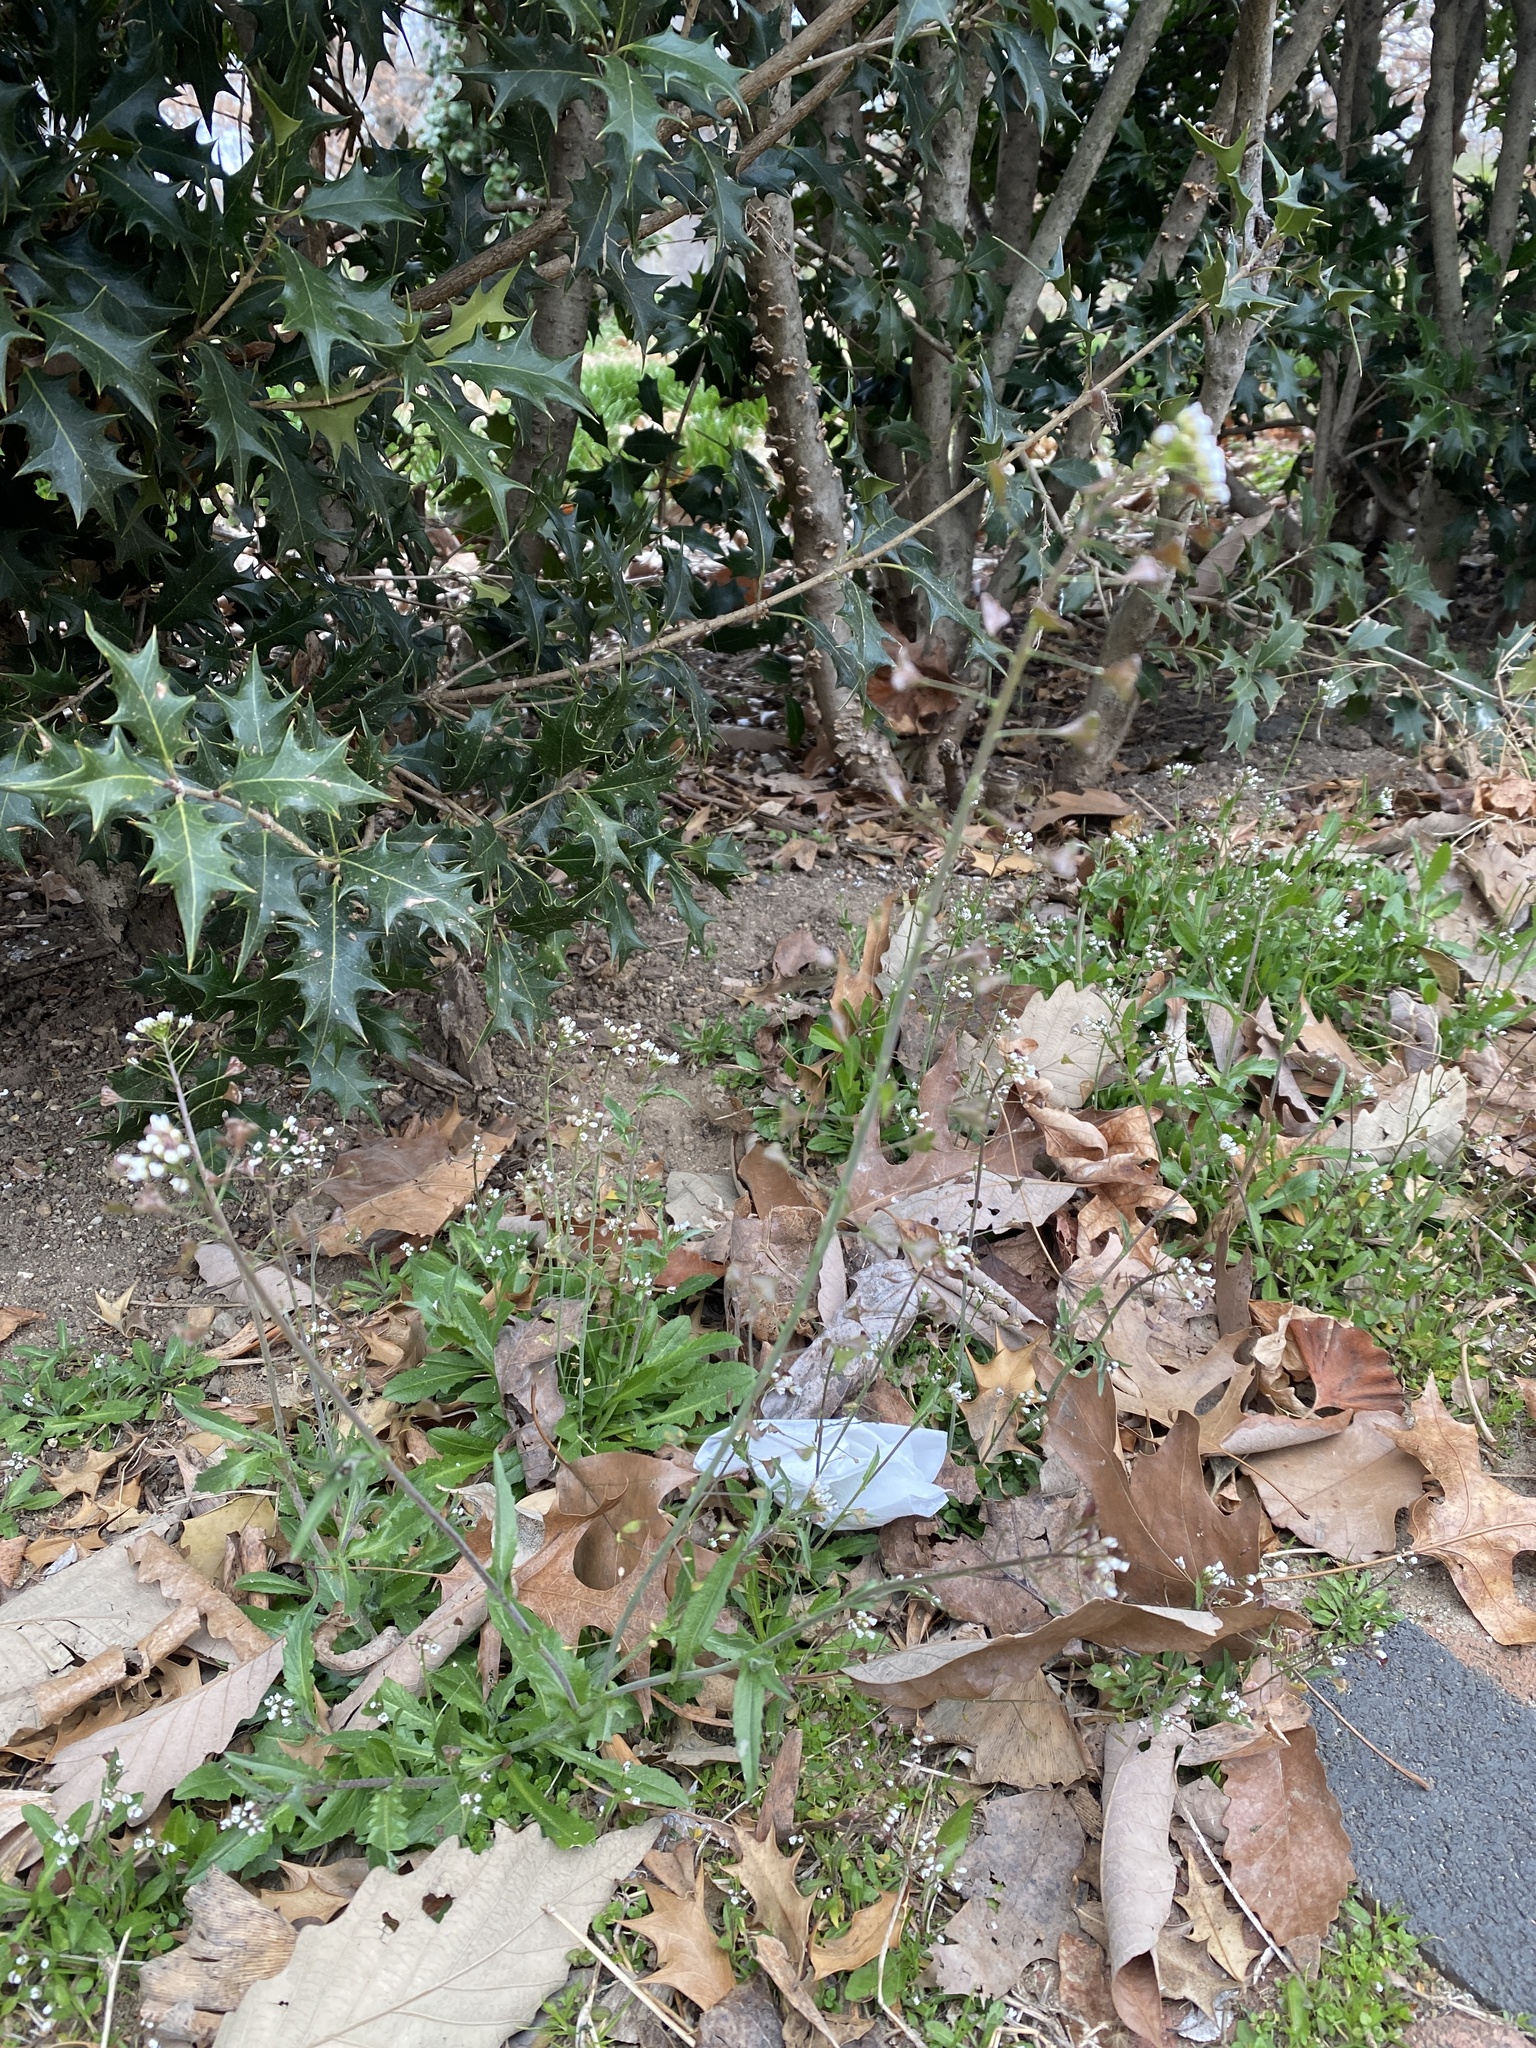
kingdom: Plantae
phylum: Tracheophyta
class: Magnoliopsida
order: Brassicales
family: Brassicaceae
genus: Capsella
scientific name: Capsella bursa-pastoris
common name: Shepherd's purse
